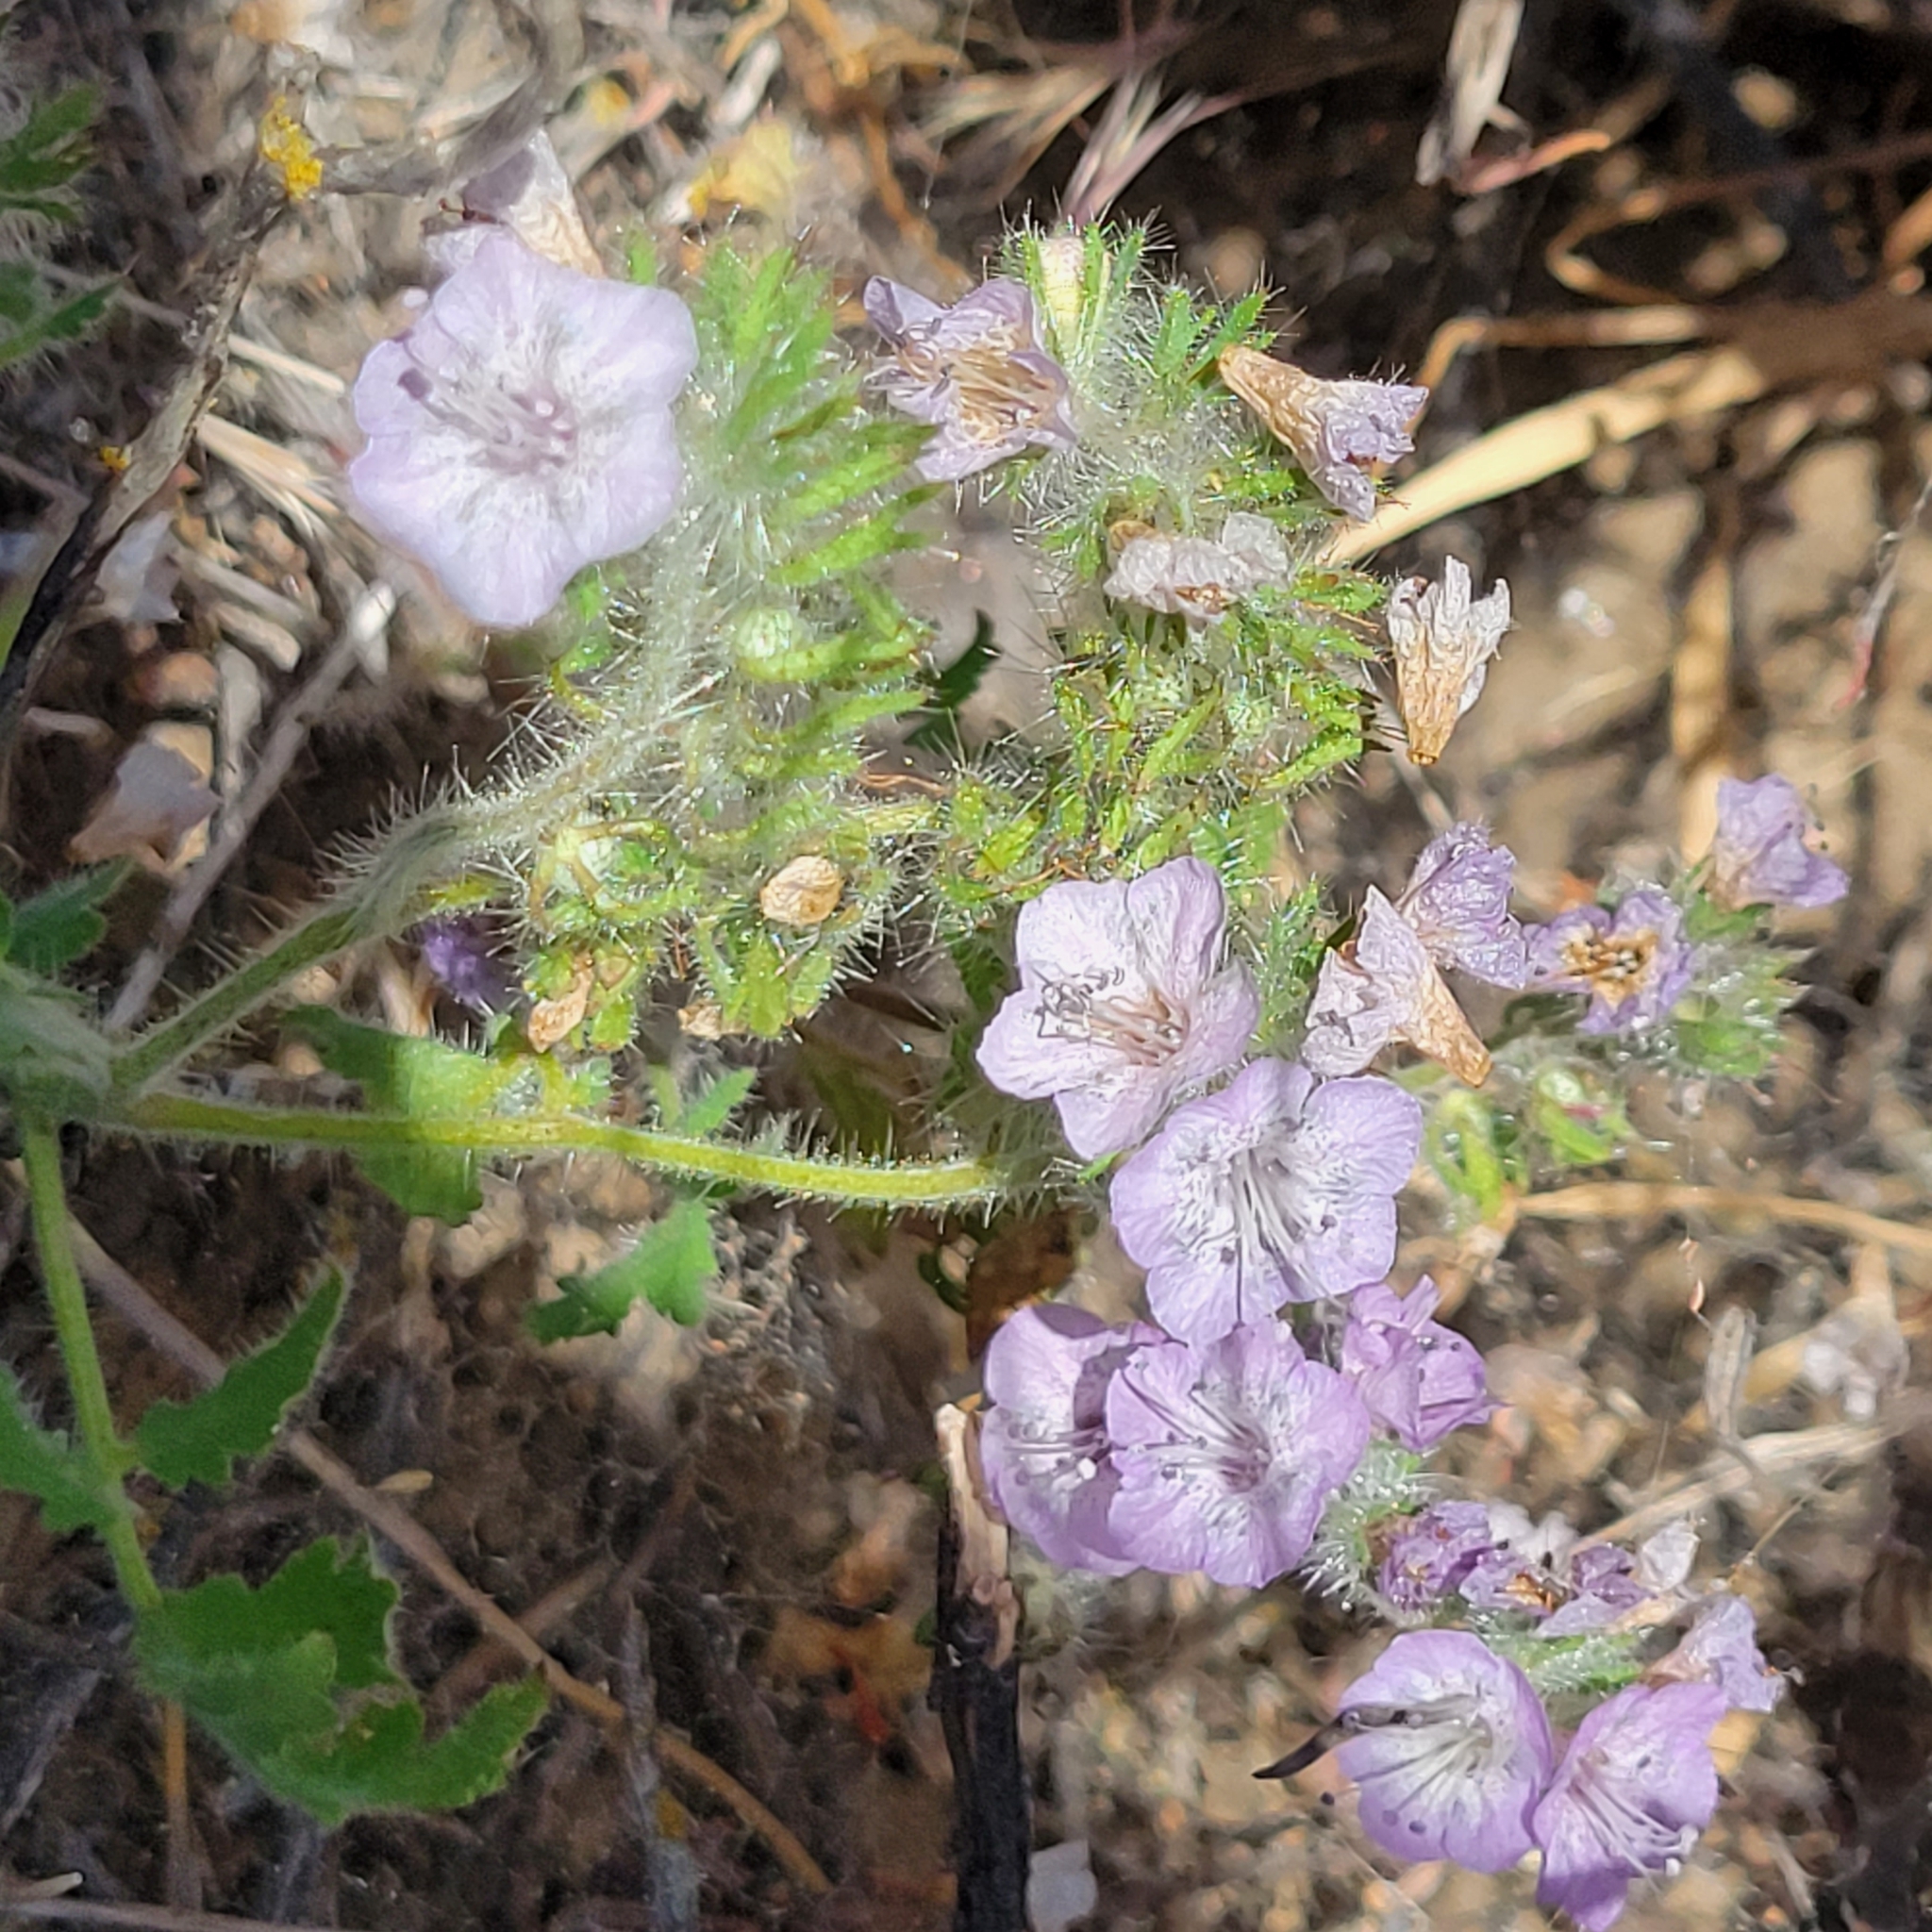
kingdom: Plantae
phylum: Tracheophyta
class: Magnoliopsida
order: Boraginales
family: Hydrophyllaceae
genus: Phacelia
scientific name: Phacelia cicutaria
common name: Caterpillar phacelia
